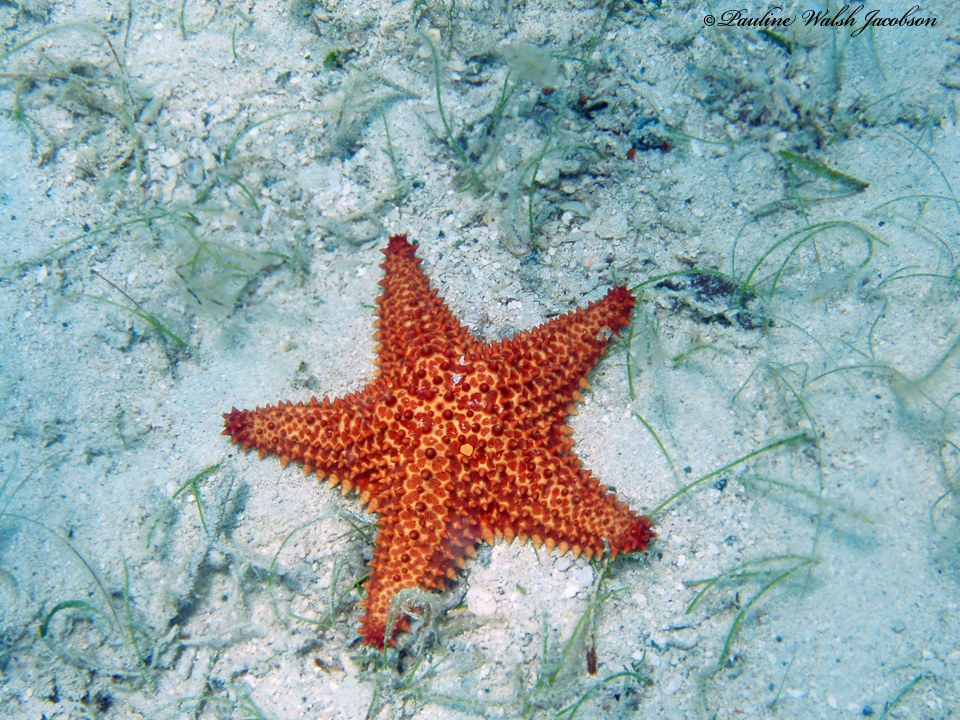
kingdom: Animalia
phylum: Echinodermata
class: Asteroidea
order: Valvatida
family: Oreasteridae
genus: Oreaster
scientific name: Oreaster reticulatus
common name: Cushion sea star
